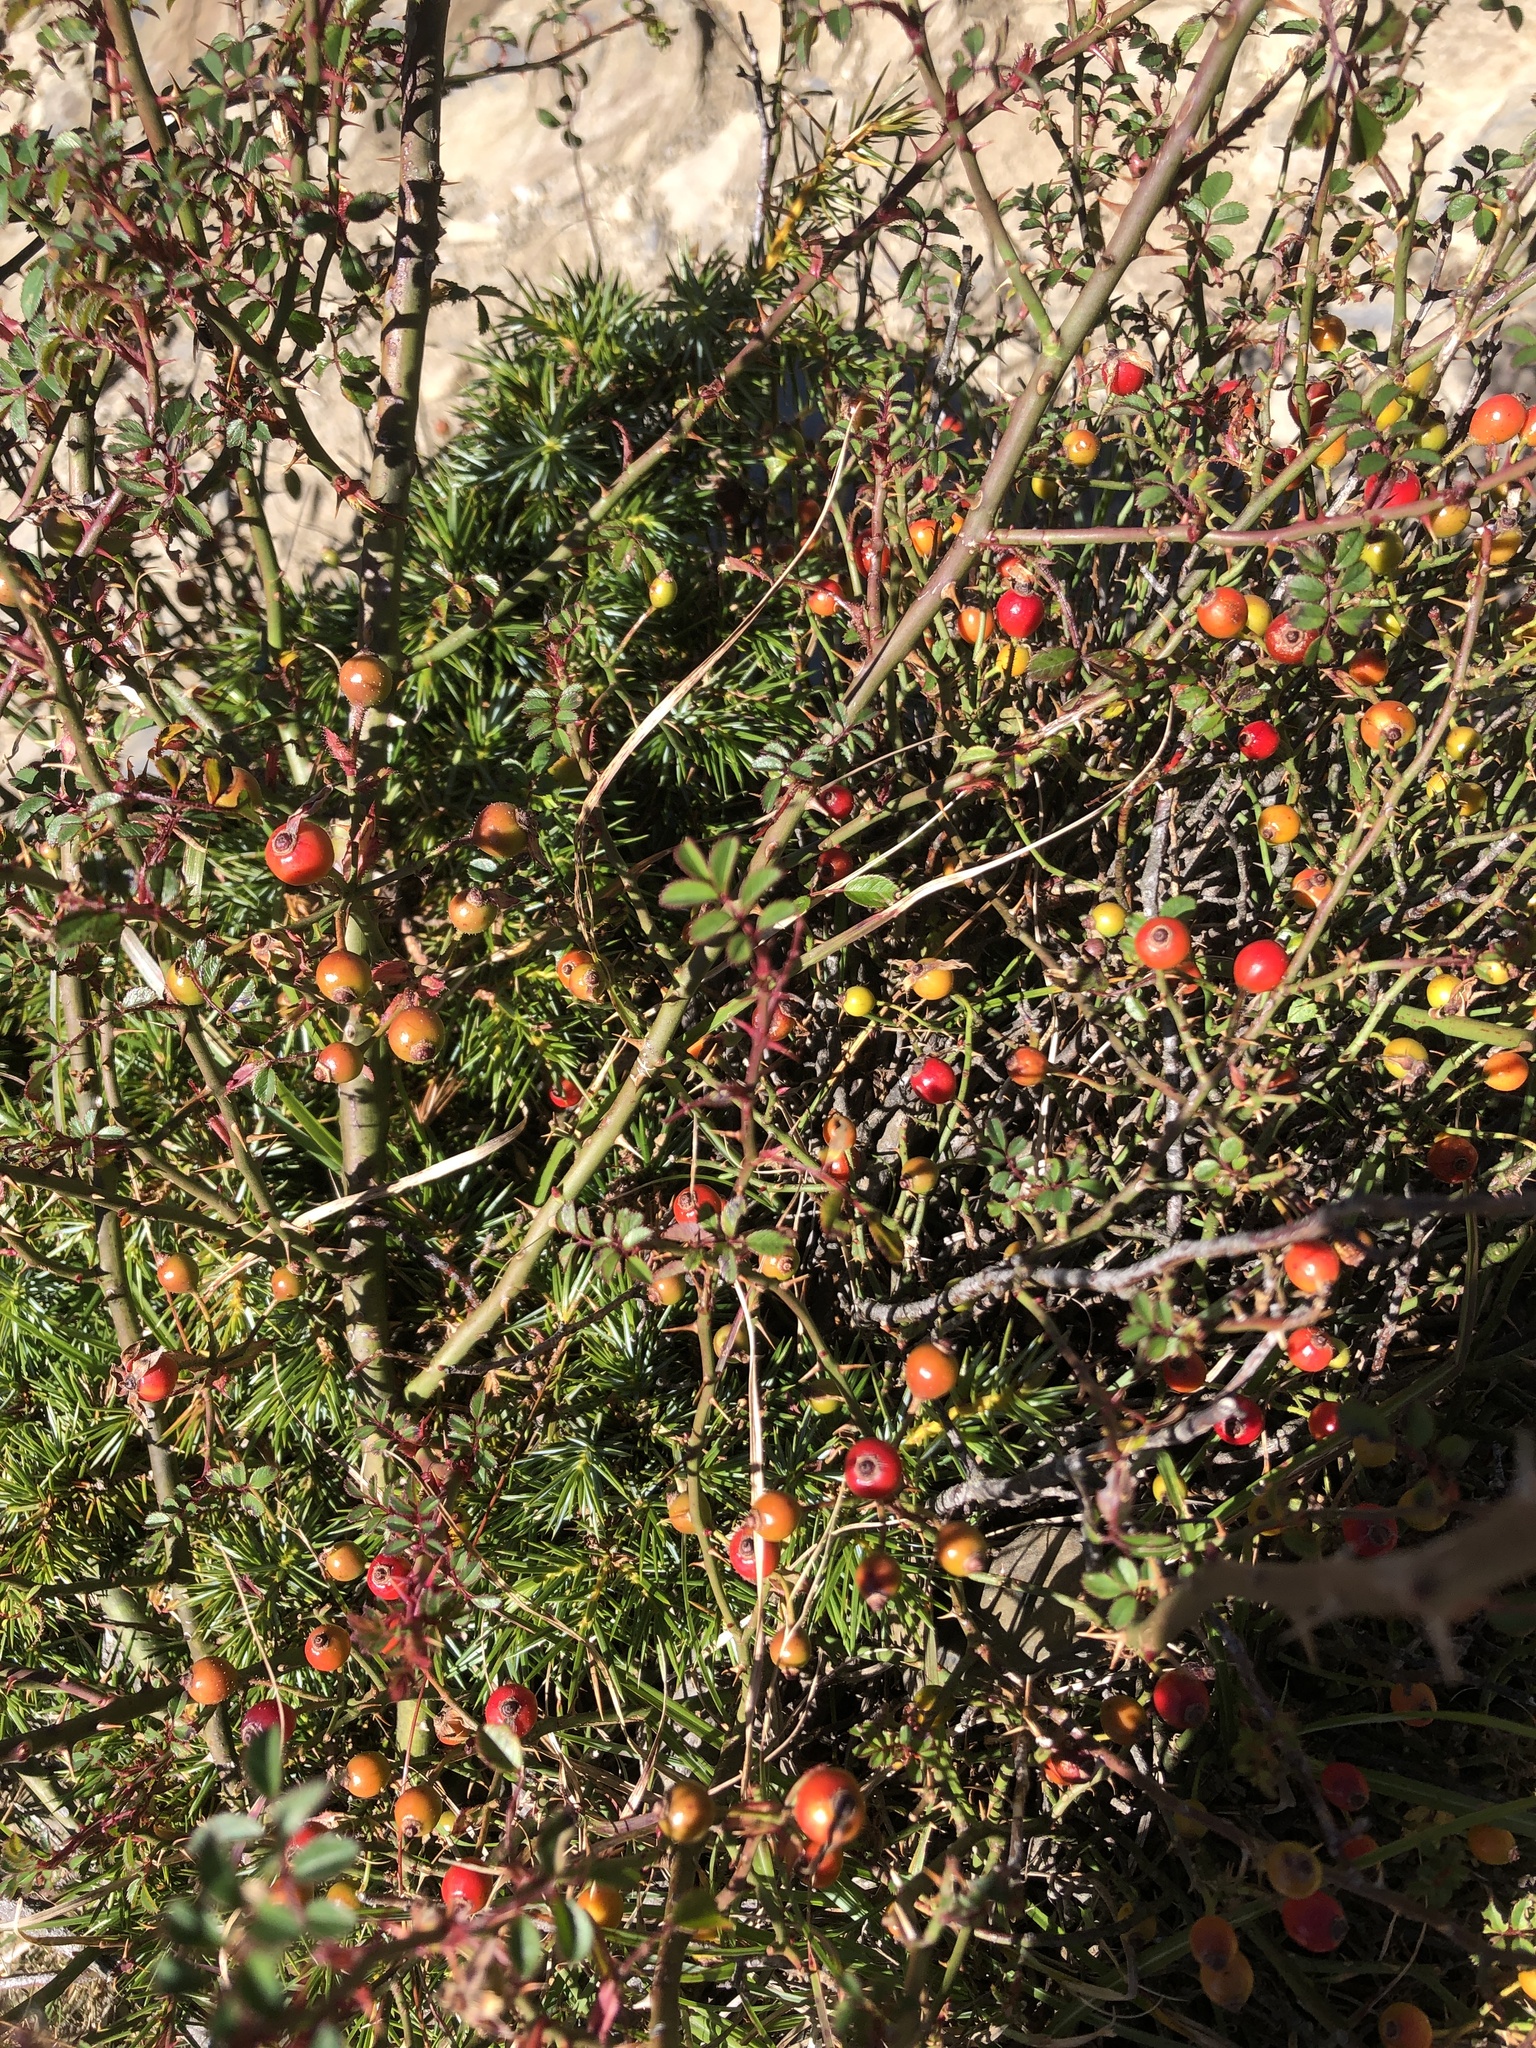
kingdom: Plantae
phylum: Tracheophyta
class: Magnoliopsida
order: Rosales
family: Rosaceae
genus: Rosa
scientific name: Rosa transmorrisonensis
